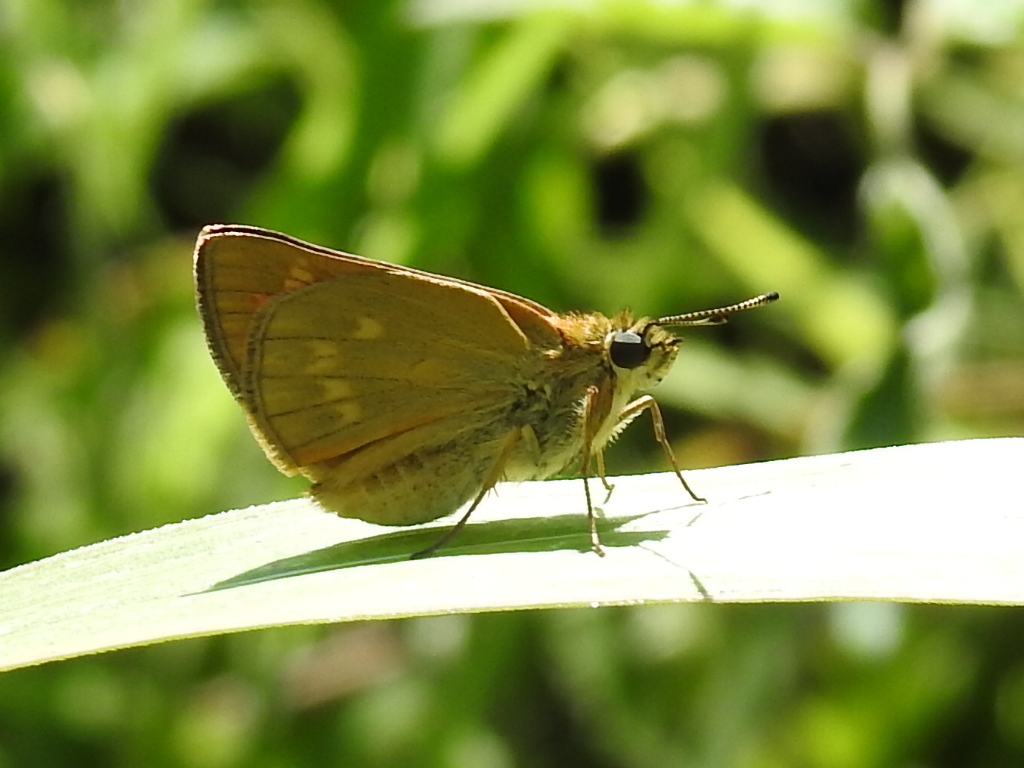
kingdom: Animalia
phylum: Arthropoda
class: Insecta
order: Lepidoptera
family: Hesperiidae
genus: Ochlodes
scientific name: Ochlodes venata
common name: Large skipper
